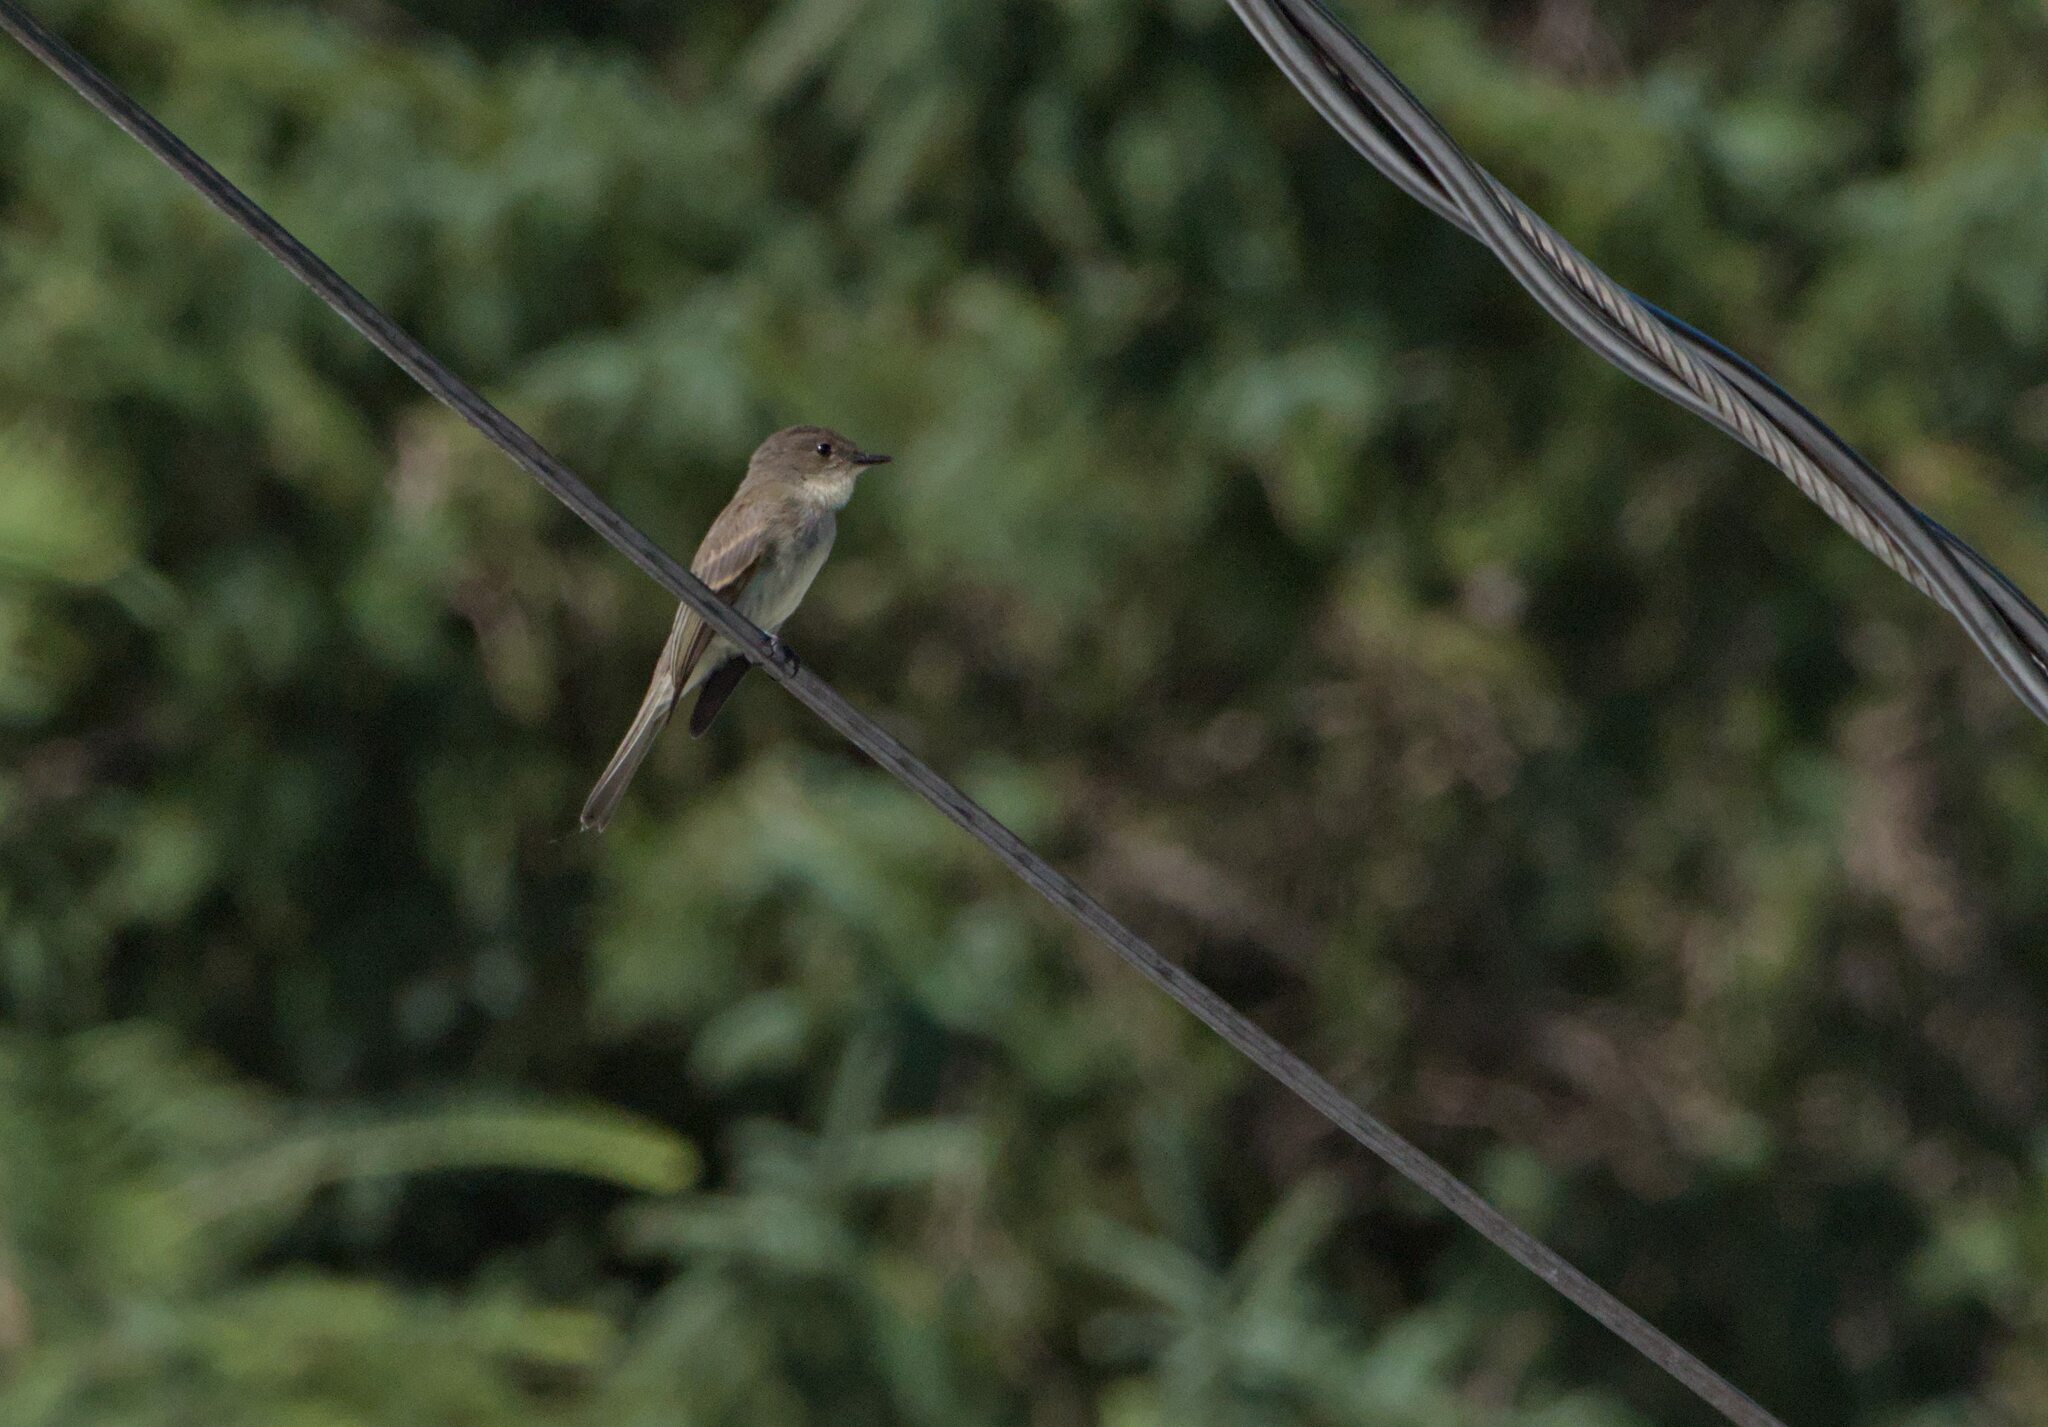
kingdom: Animalia
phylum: Chordata
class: Aves
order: Passeriformes
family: Tyrannidae
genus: Sayornis
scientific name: Sayornis phoebe
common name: Eastern phoebe
